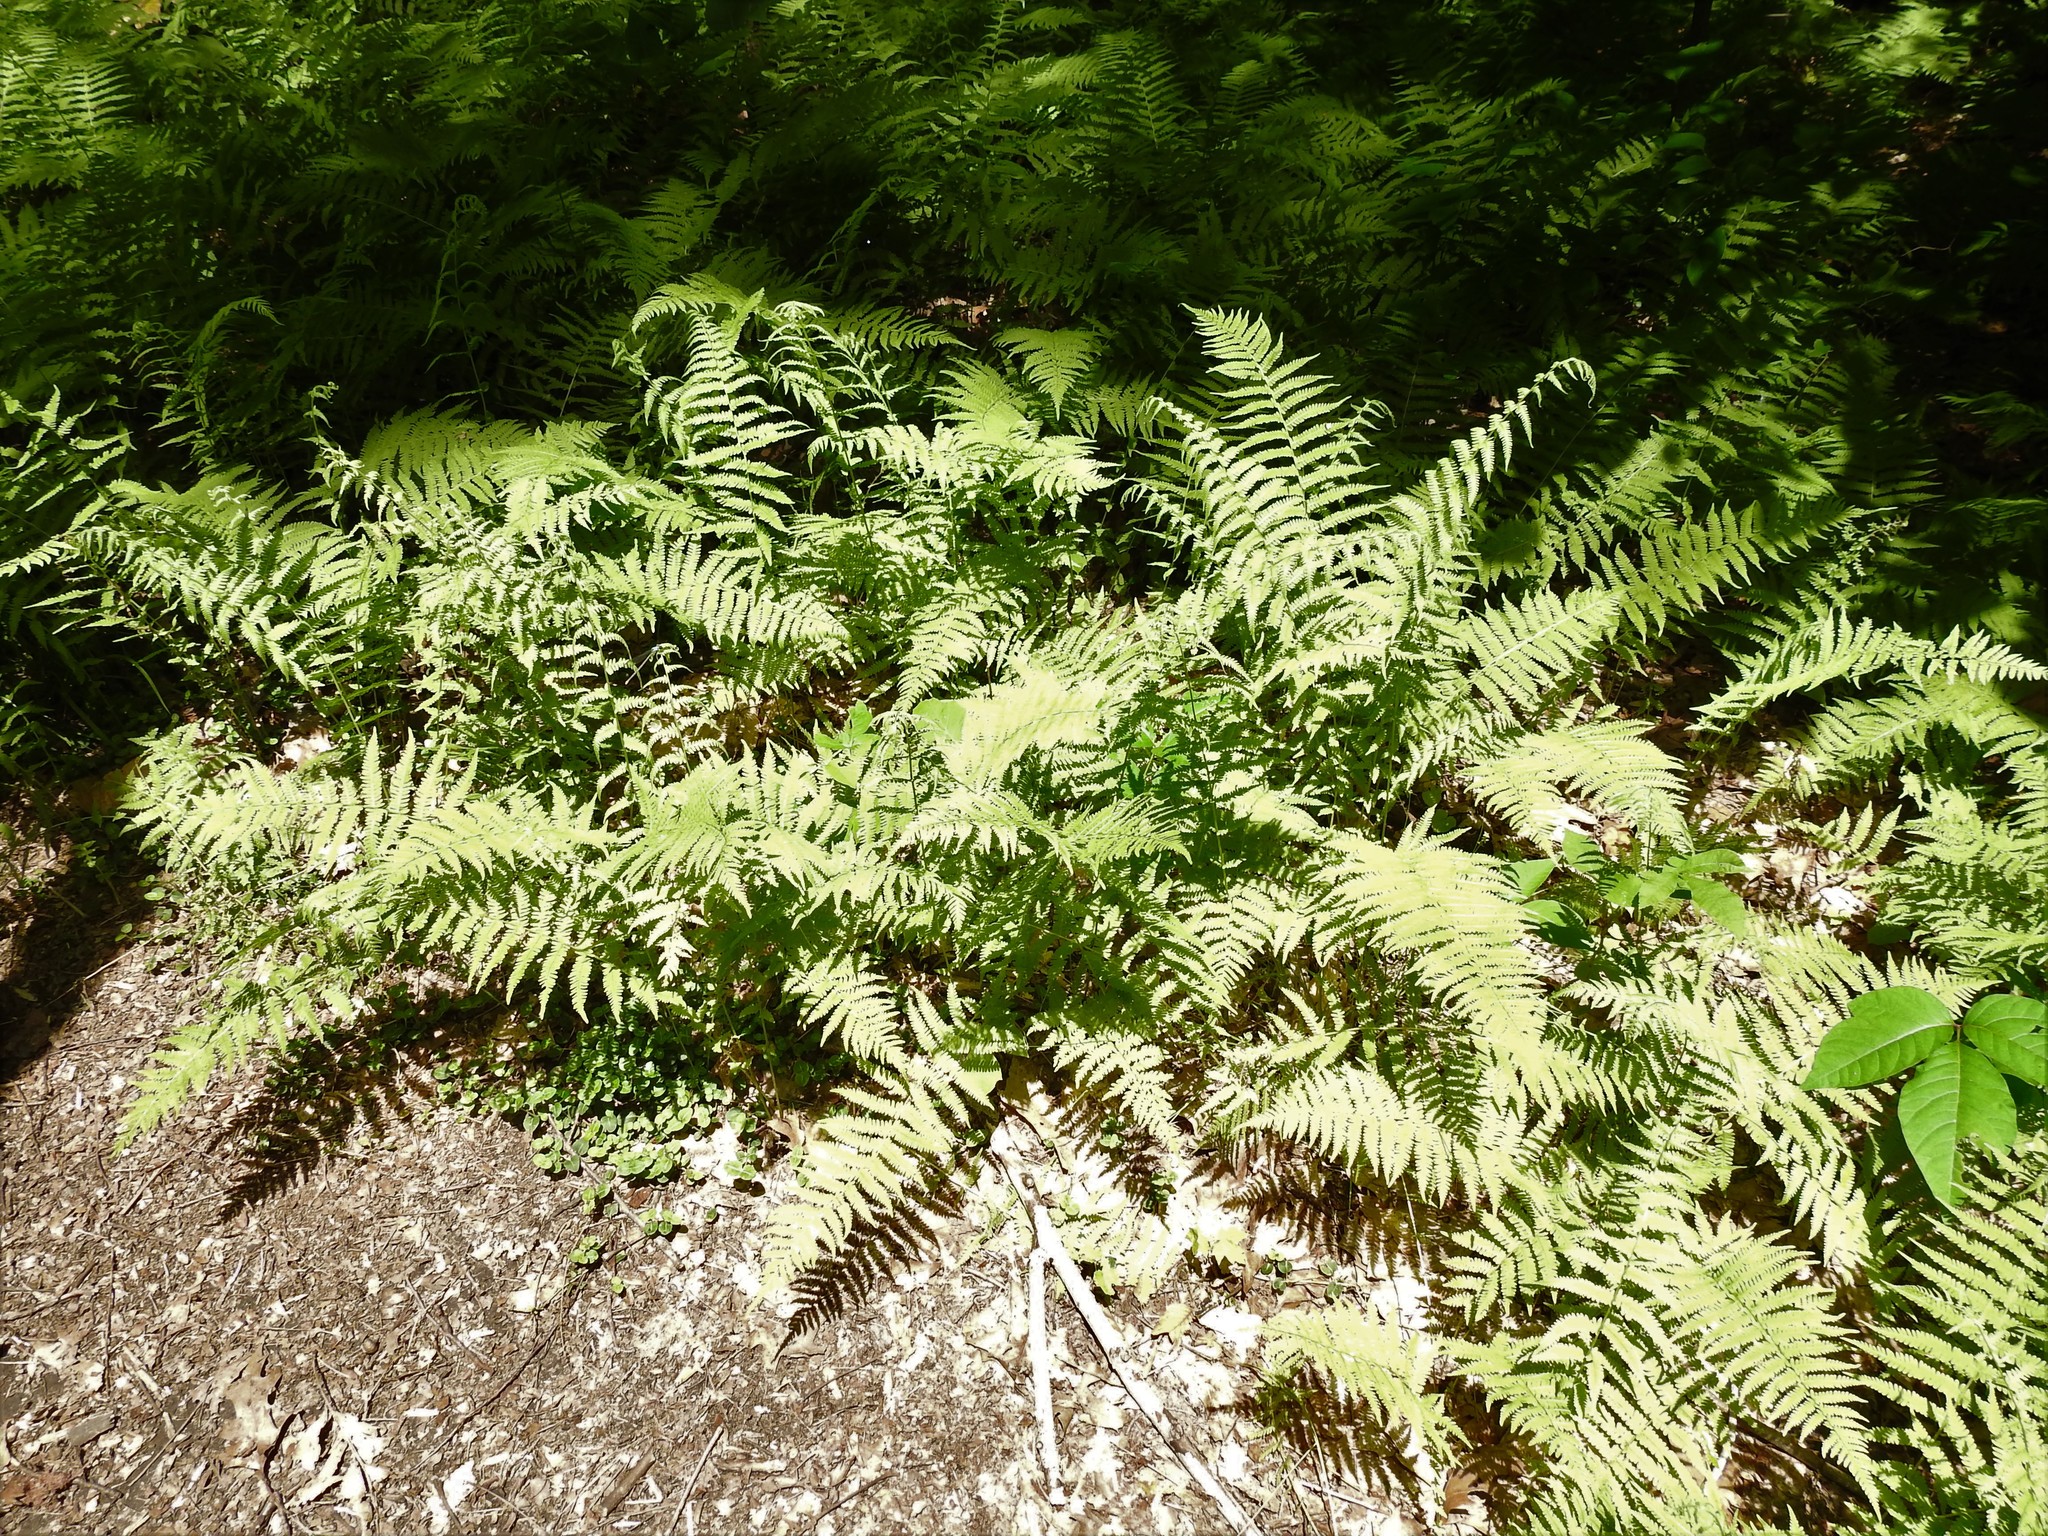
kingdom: Plantae
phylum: Tracheophyta
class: Polypodiopsida
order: Polypodiales
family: Thelypteridaceae
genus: Amauropelta
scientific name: Amauropelta noveboracensis
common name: New york fern
